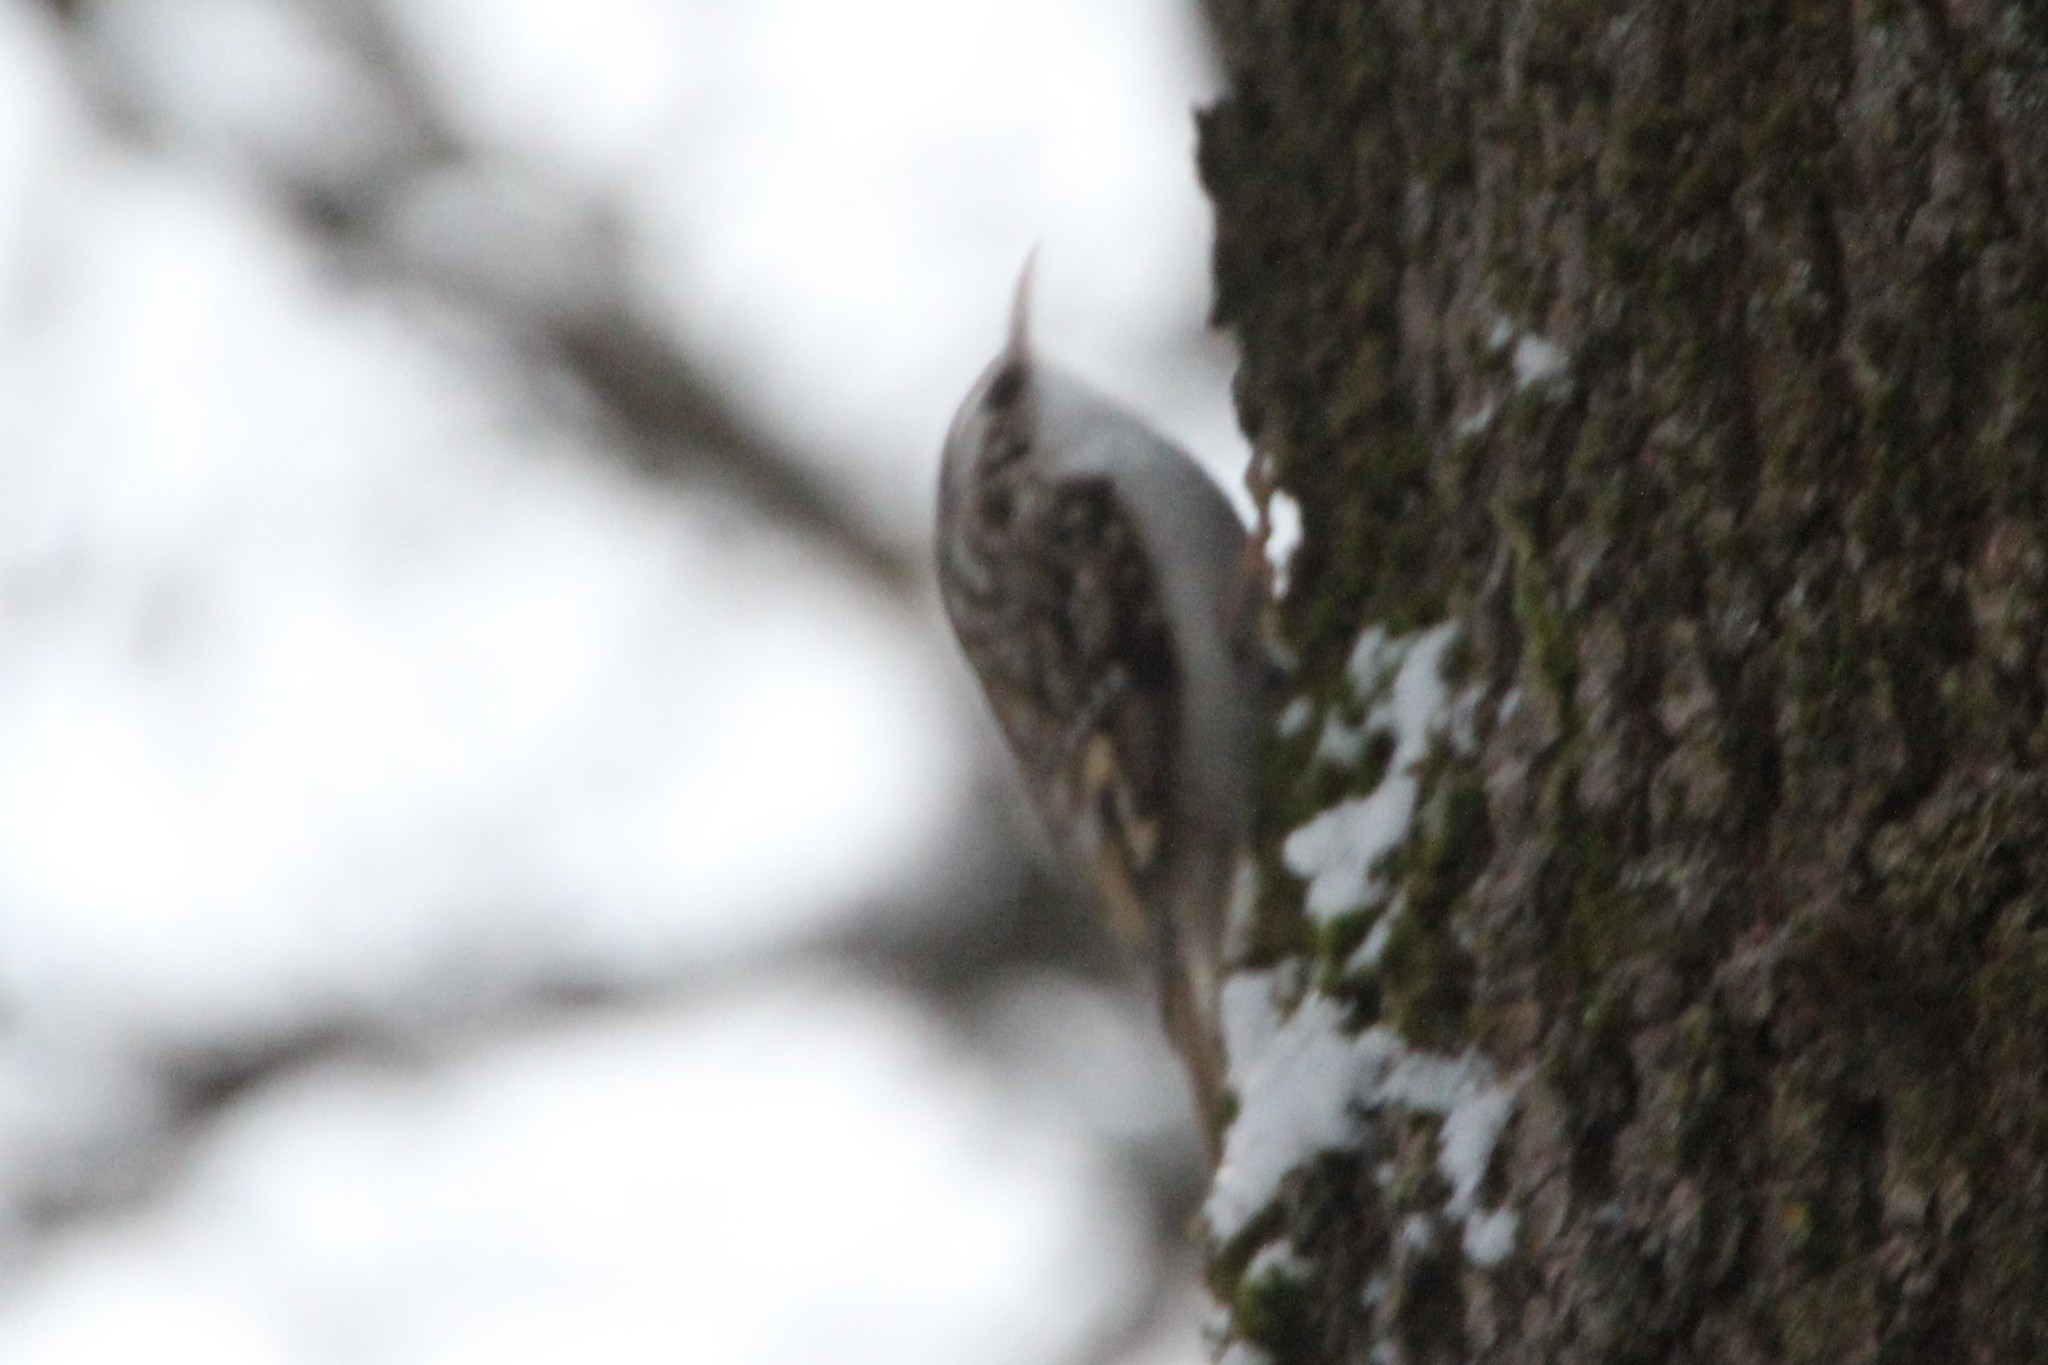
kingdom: Animalia
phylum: Chordata
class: Aves
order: Passeriformes
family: Certhiidae
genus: Certhia
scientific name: Certhia familiaris
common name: Eurasian treecreeper
